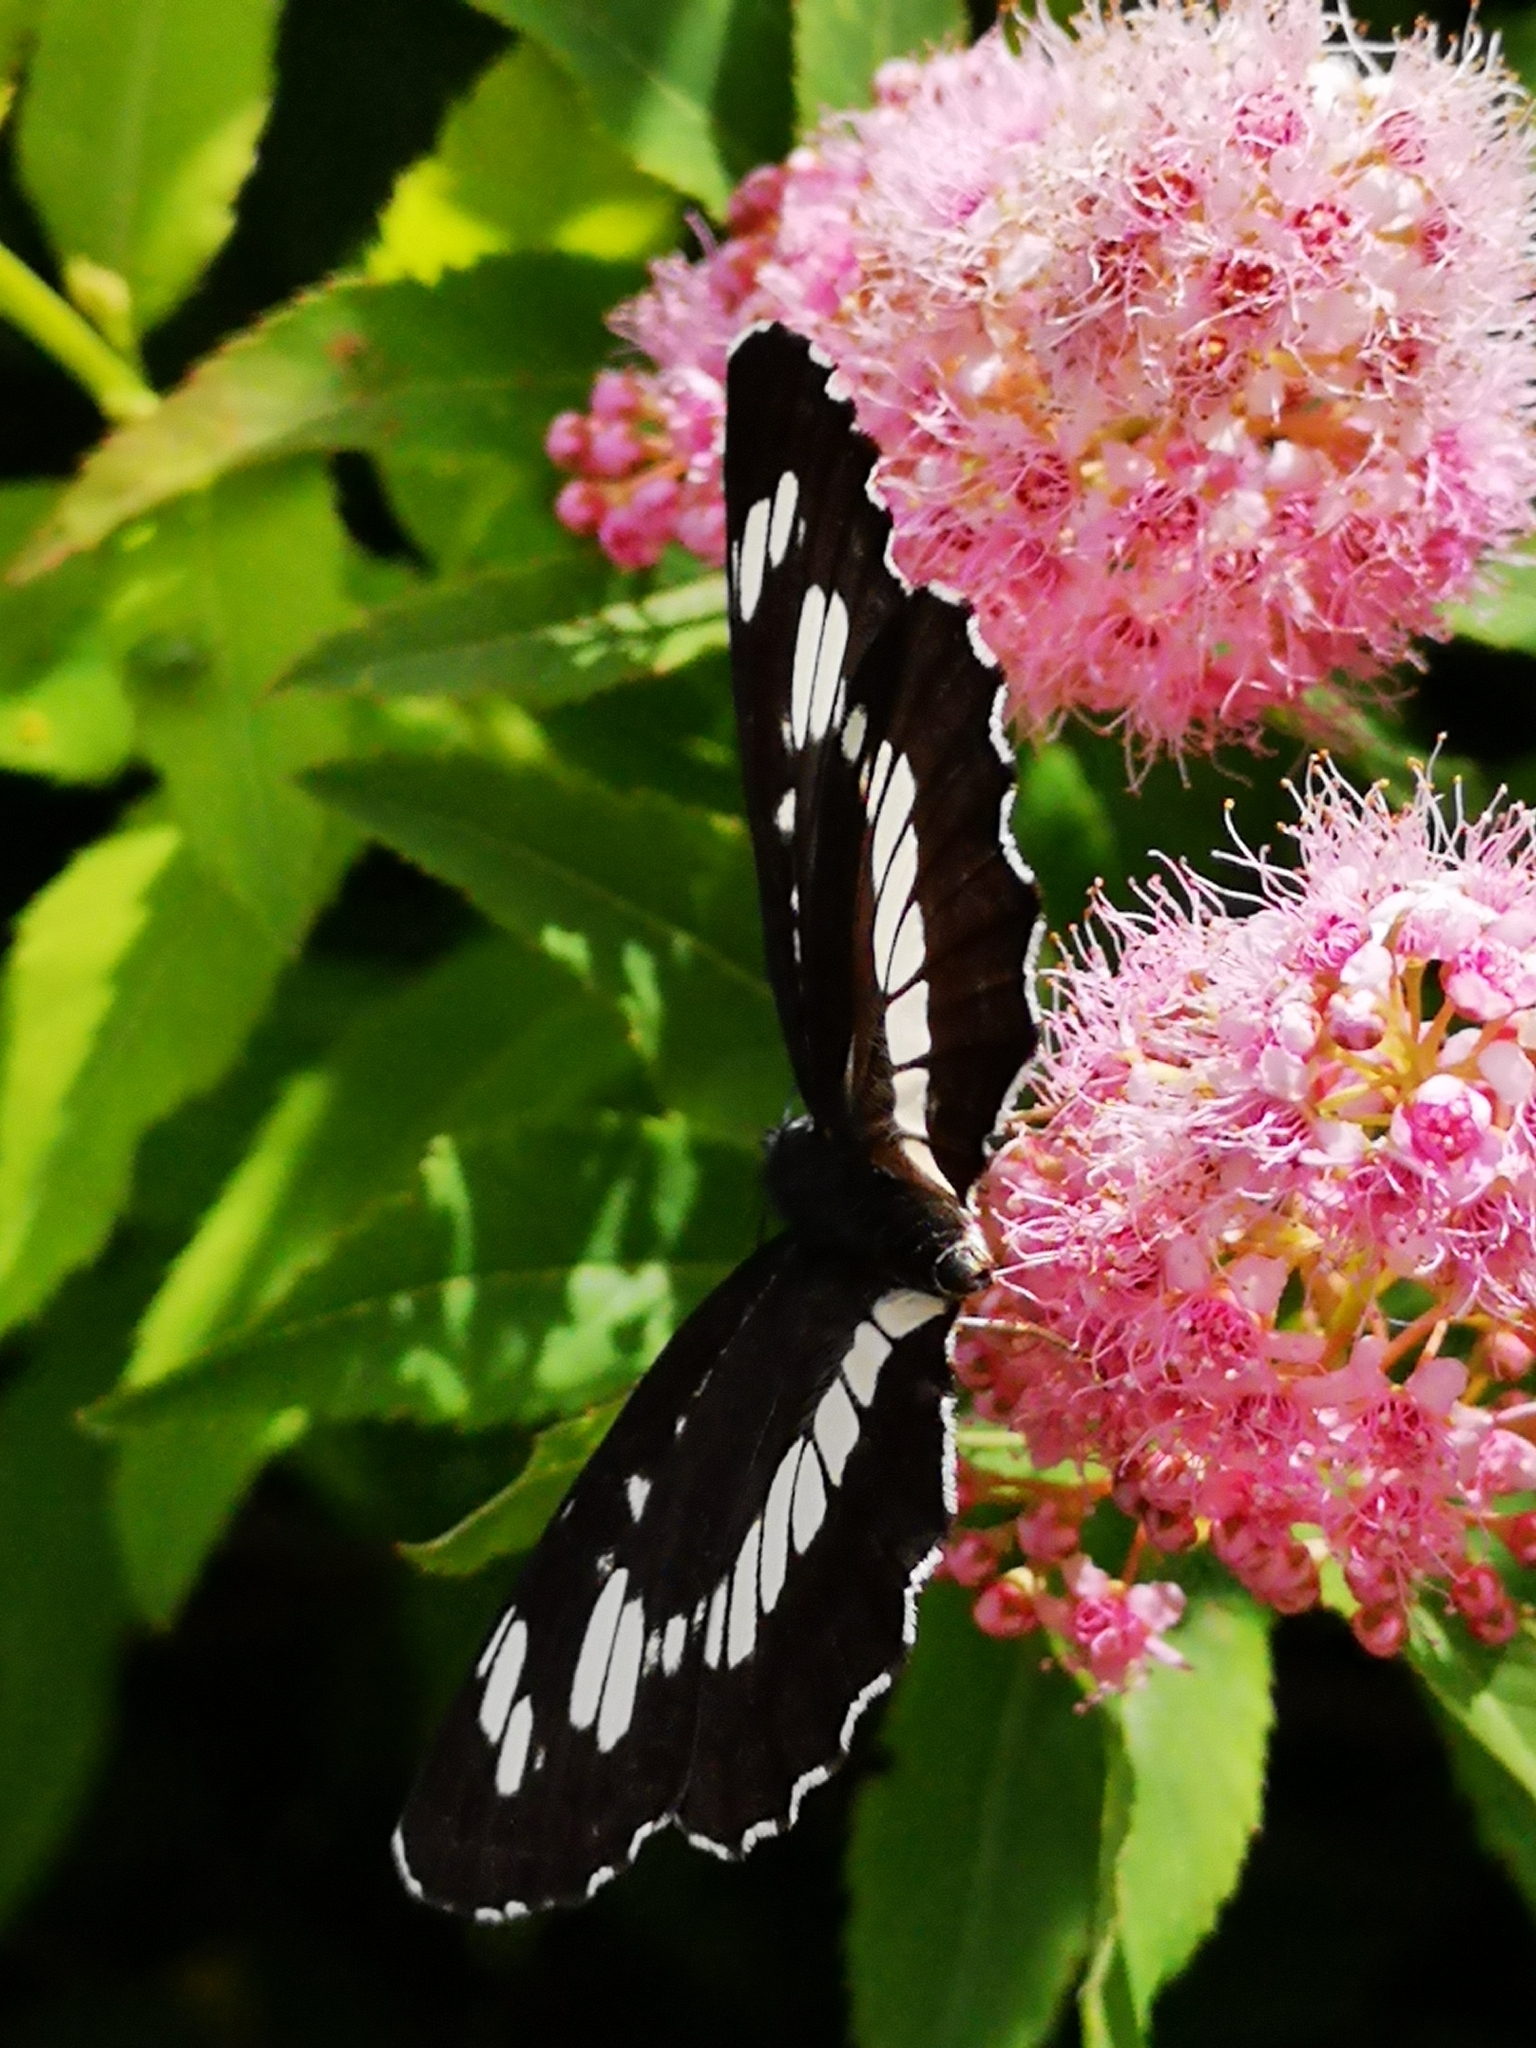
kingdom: Animalia
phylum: Arthropoda
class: Insecta
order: Lepidoptera
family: Nymphalidae
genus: Neptis
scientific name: Neptis rivularis
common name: Hungarian glider
